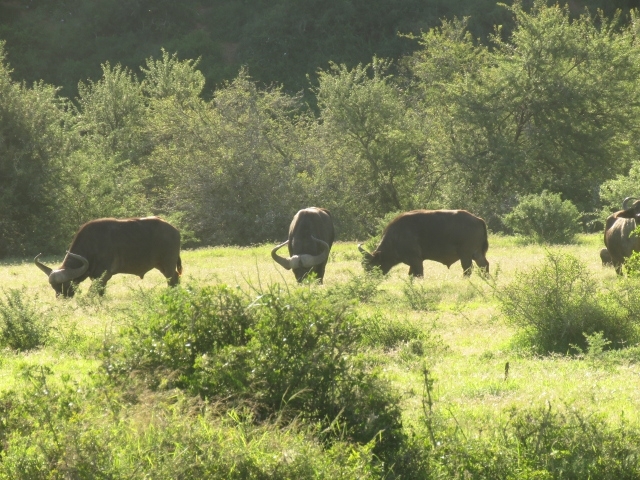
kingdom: Animalia
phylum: Chordata
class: Mammalia
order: Artiodactyla
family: Bovidae
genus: Syncerus
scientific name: Syncerus caffer
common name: African buffalo
